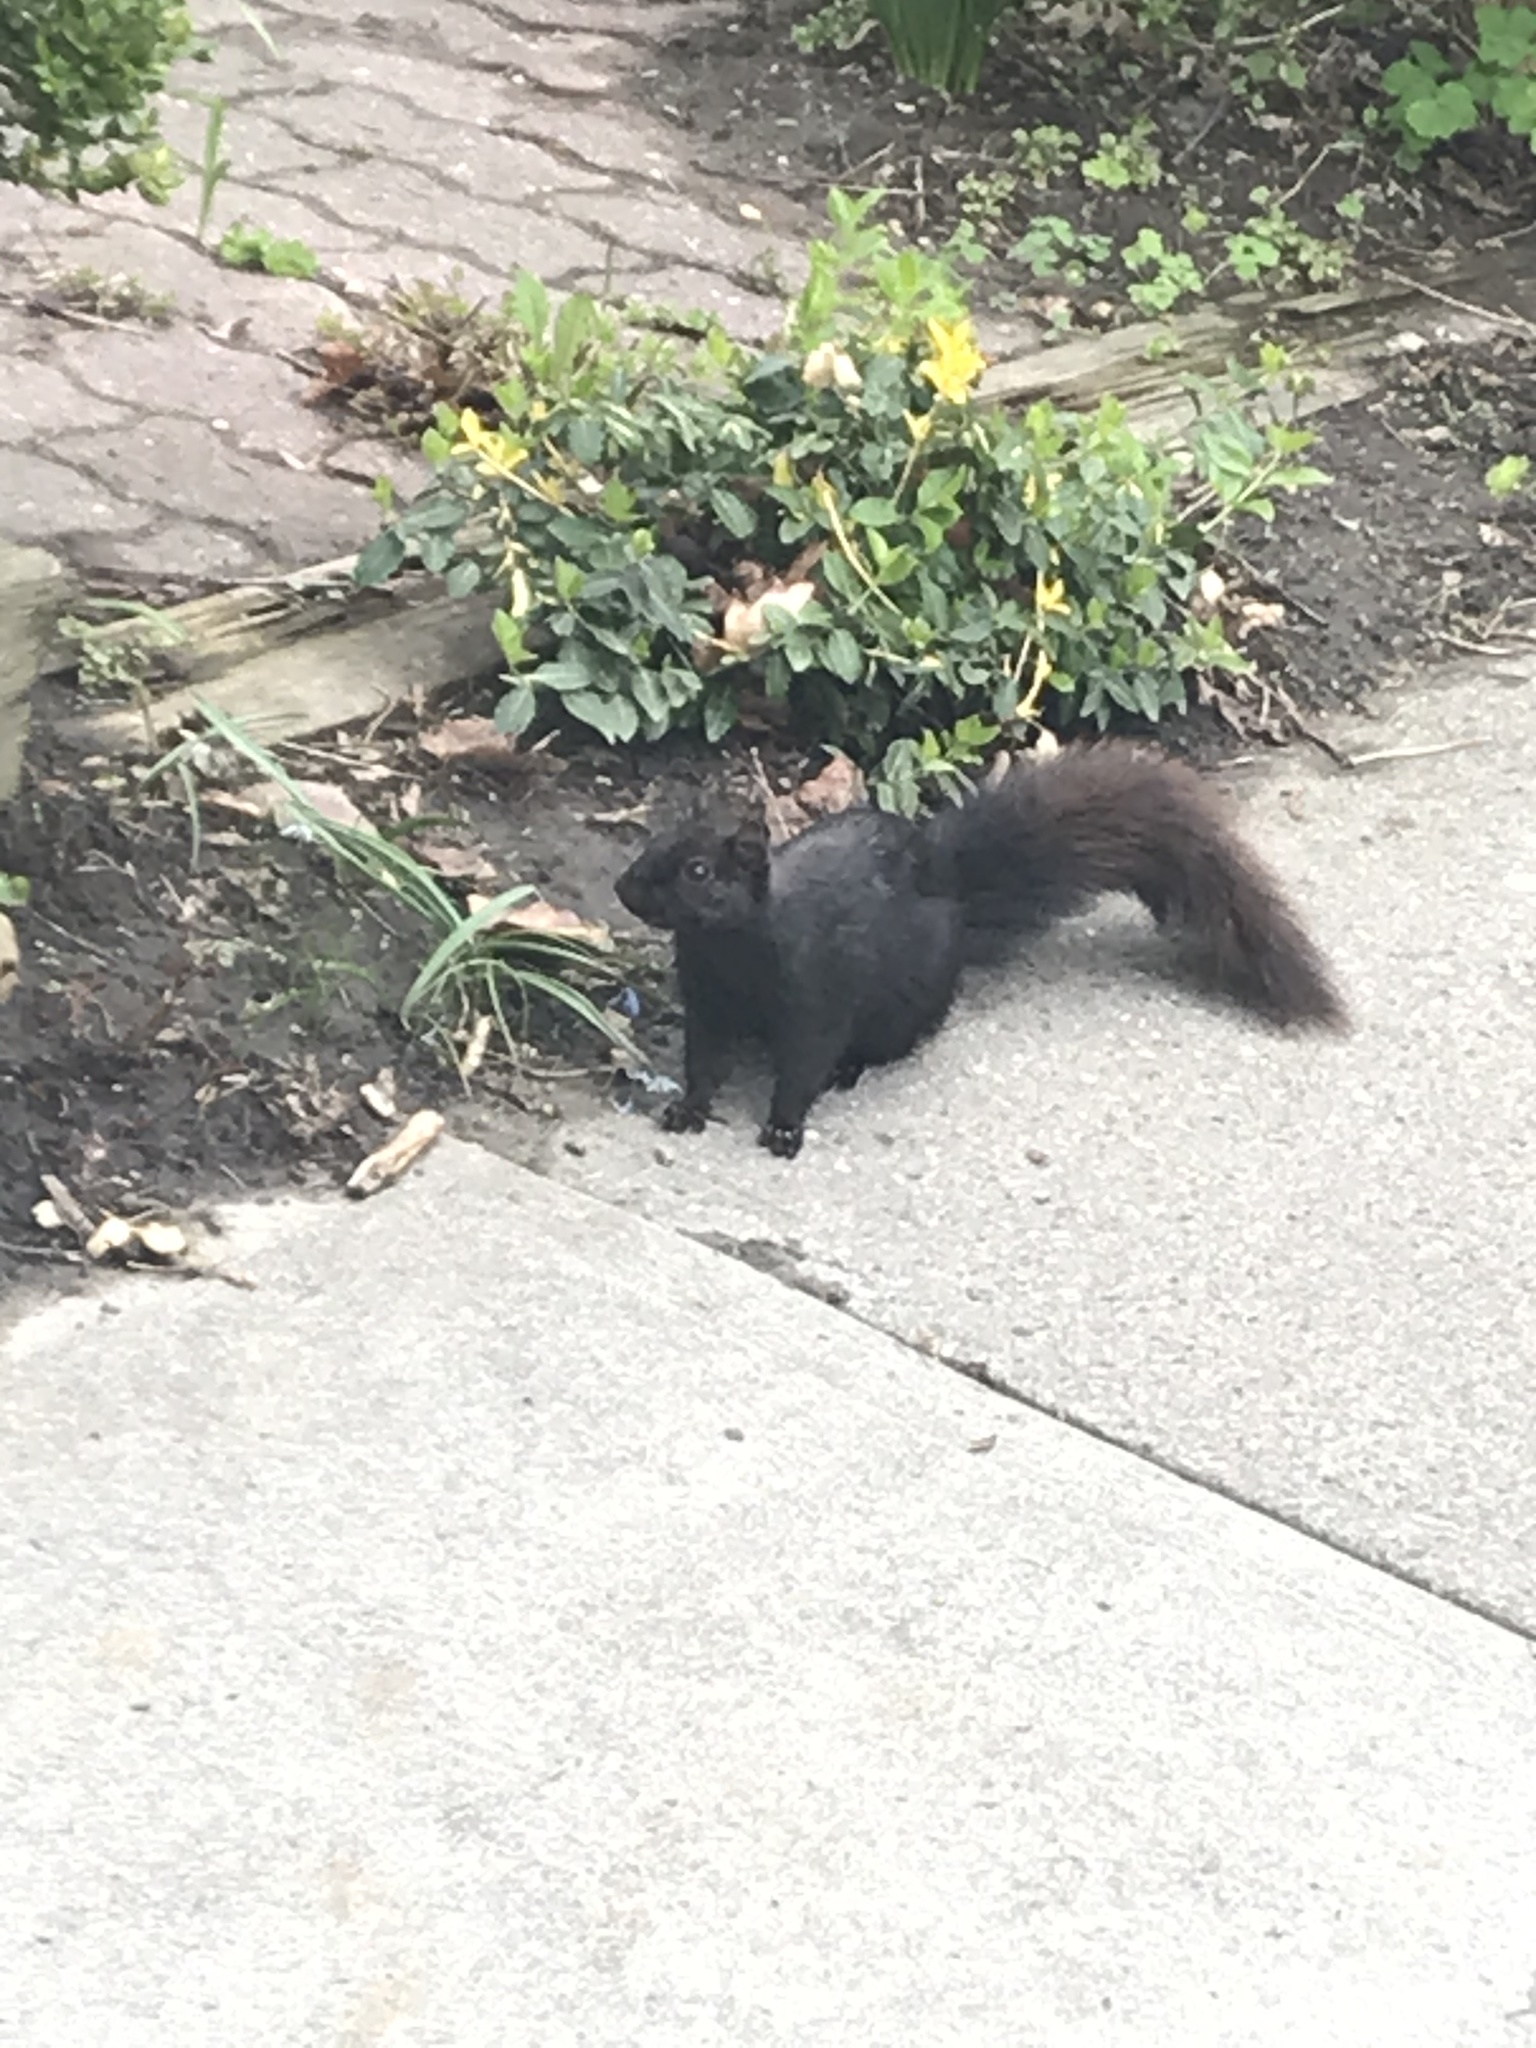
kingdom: Animalia
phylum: Chordata
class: Mammalia
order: Rodentia
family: Sciuridae
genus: Sciurus
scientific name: Sciurus carolinensis
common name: Eastern gray squirrel
